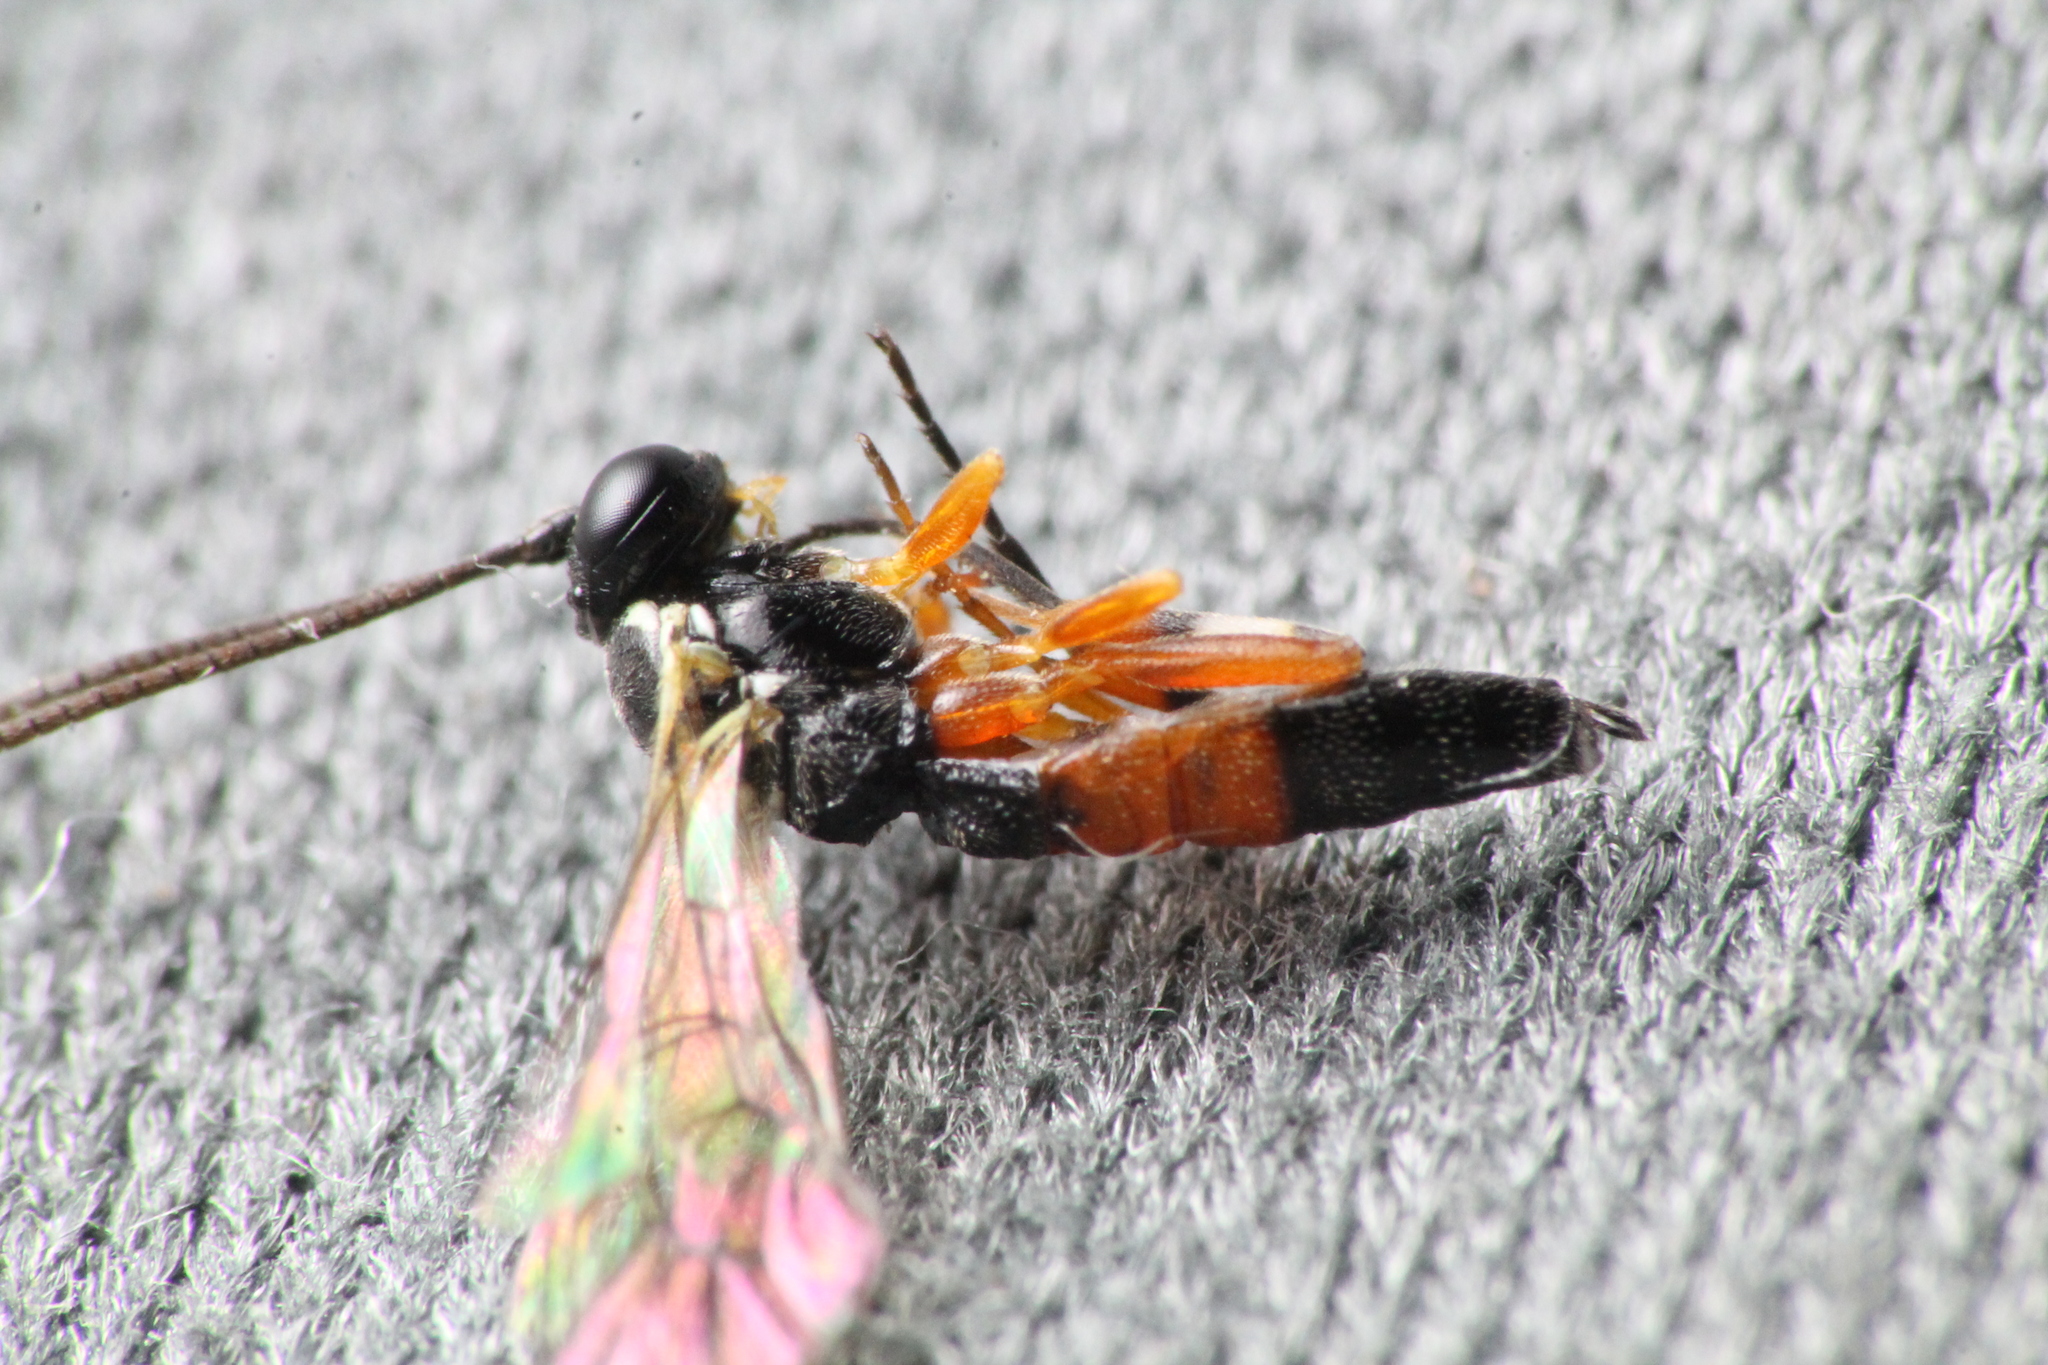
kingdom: Animalia
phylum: Arthropoda
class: Insecta
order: Hymenoptera
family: Ichneumonidae
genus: Diplazon
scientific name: Diplazon laetatorius
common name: Parasitoid wasp
